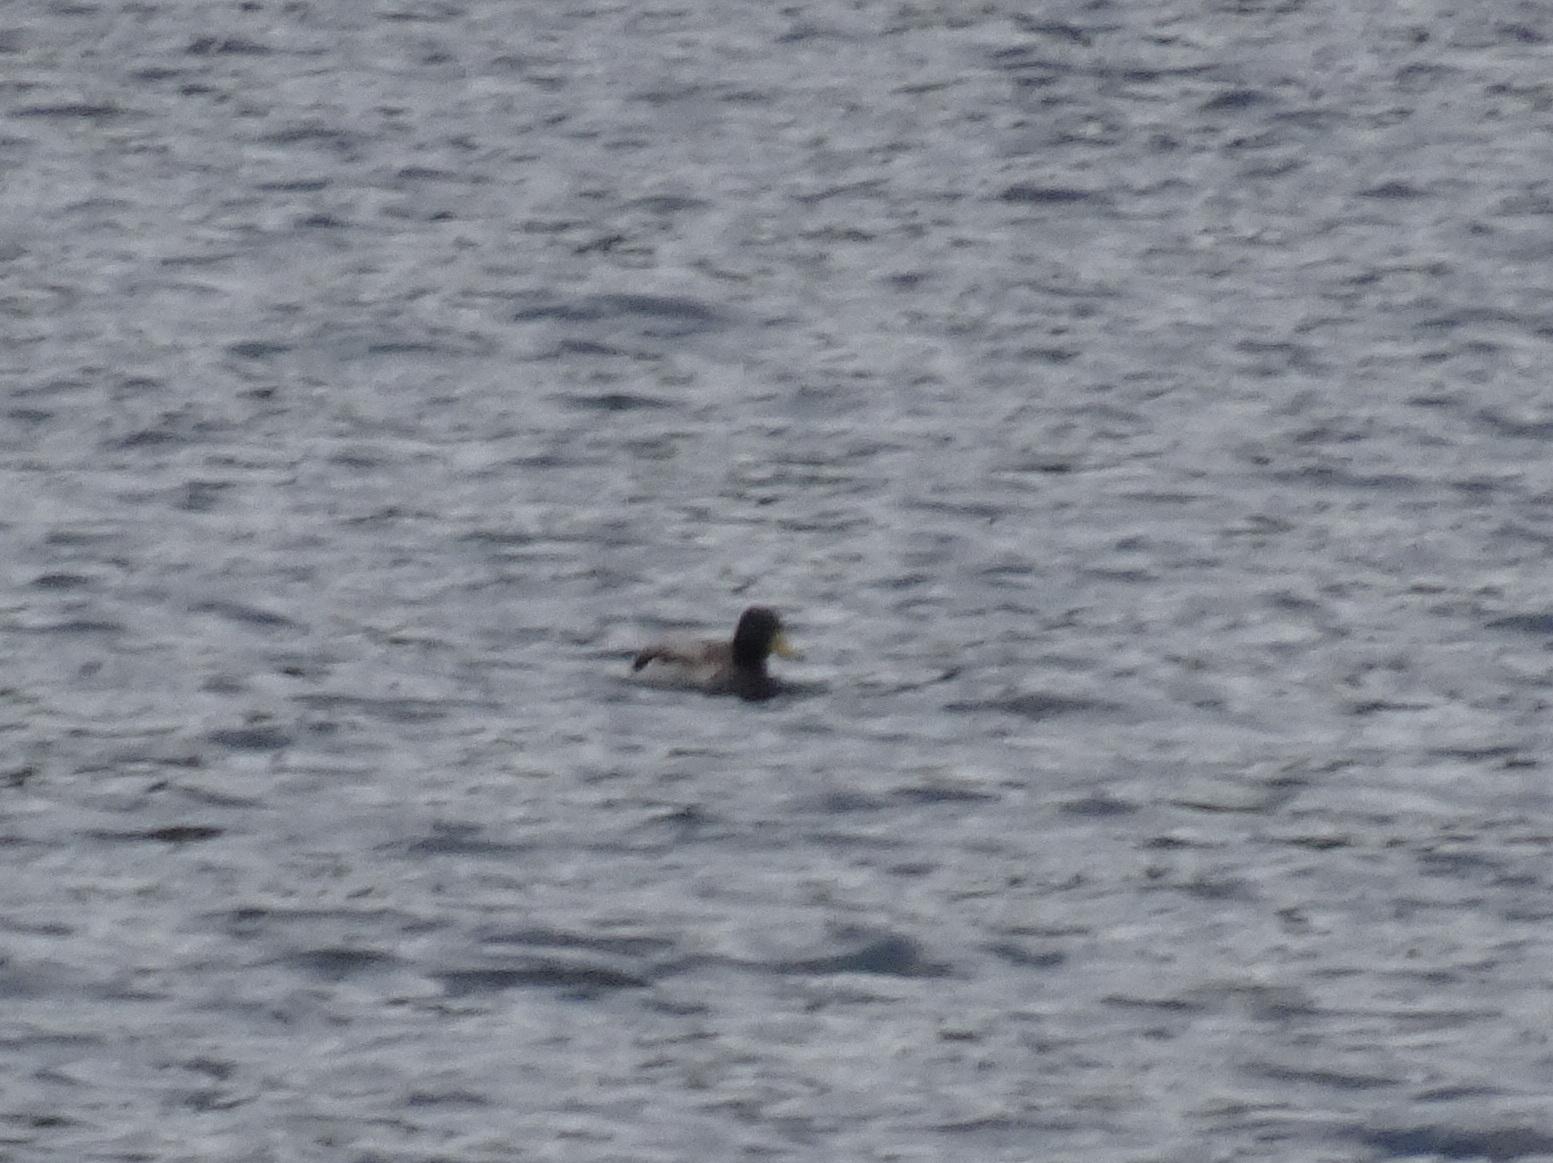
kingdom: Animalia
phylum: Chordata
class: Aves
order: Anseriformes
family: Anatidae
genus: Anas
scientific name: Anas platyrhynchos
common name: Mallard
